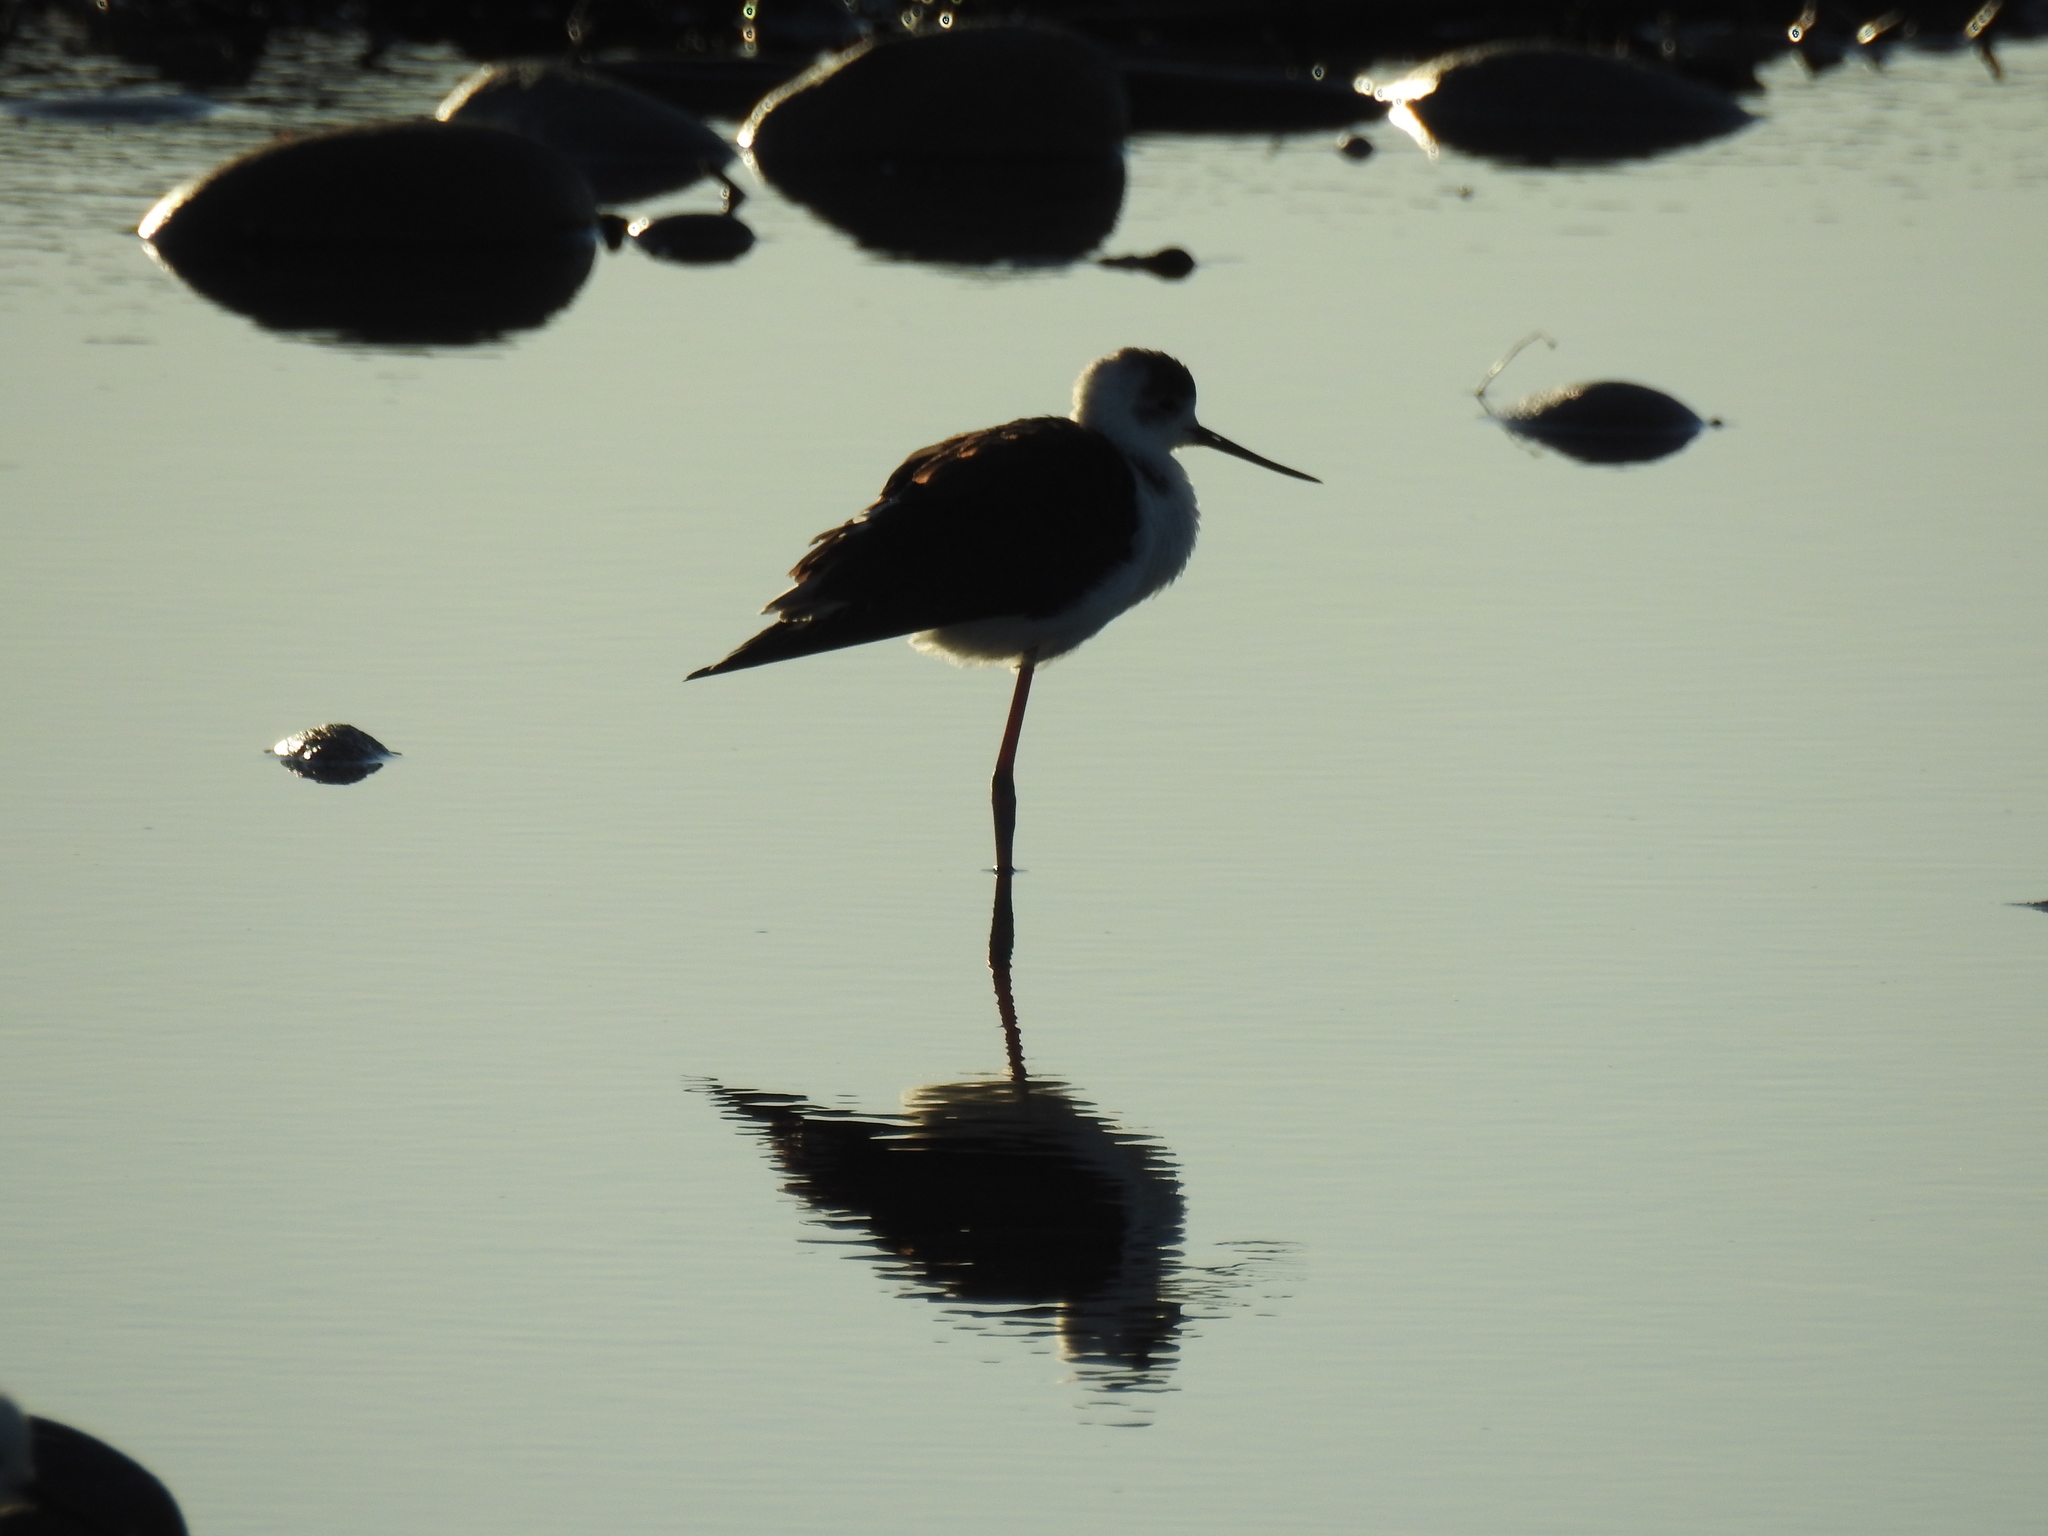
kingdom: Animalia
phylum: Chordata
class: Aves
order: Charadriiformes
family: Recurvirostridae
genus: Himantopus
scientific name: Himantopus leucocephalus
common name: White-headed stilt
